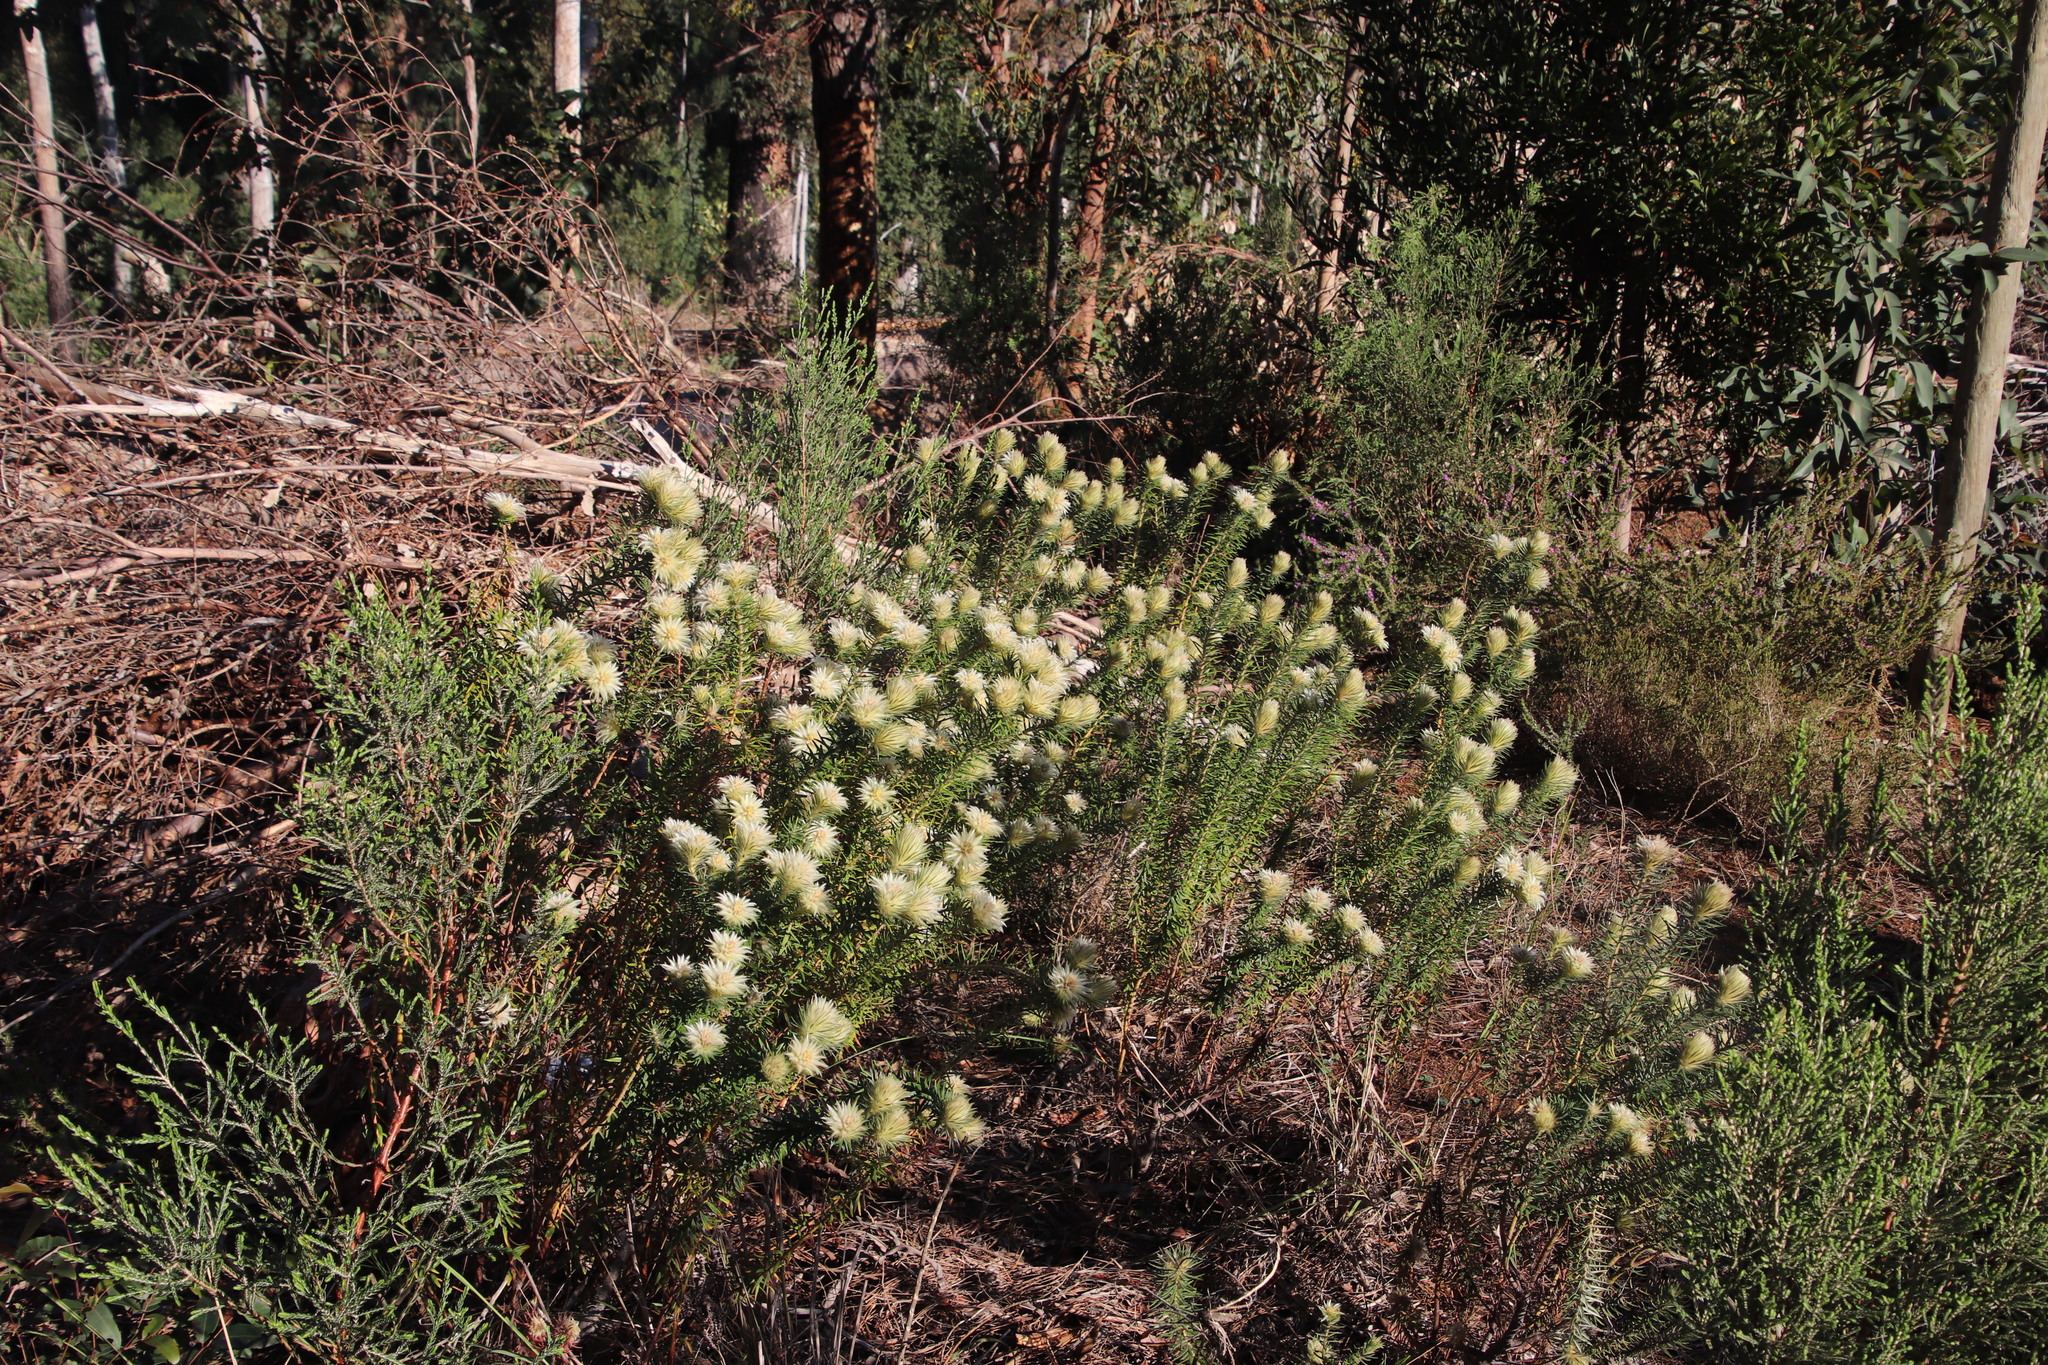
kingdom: Plantae
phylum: Tracheophyta
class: Magnoliopsida
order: Rosales
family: Rhamnaceae
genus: Phylica
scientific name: Phylica pubescens
